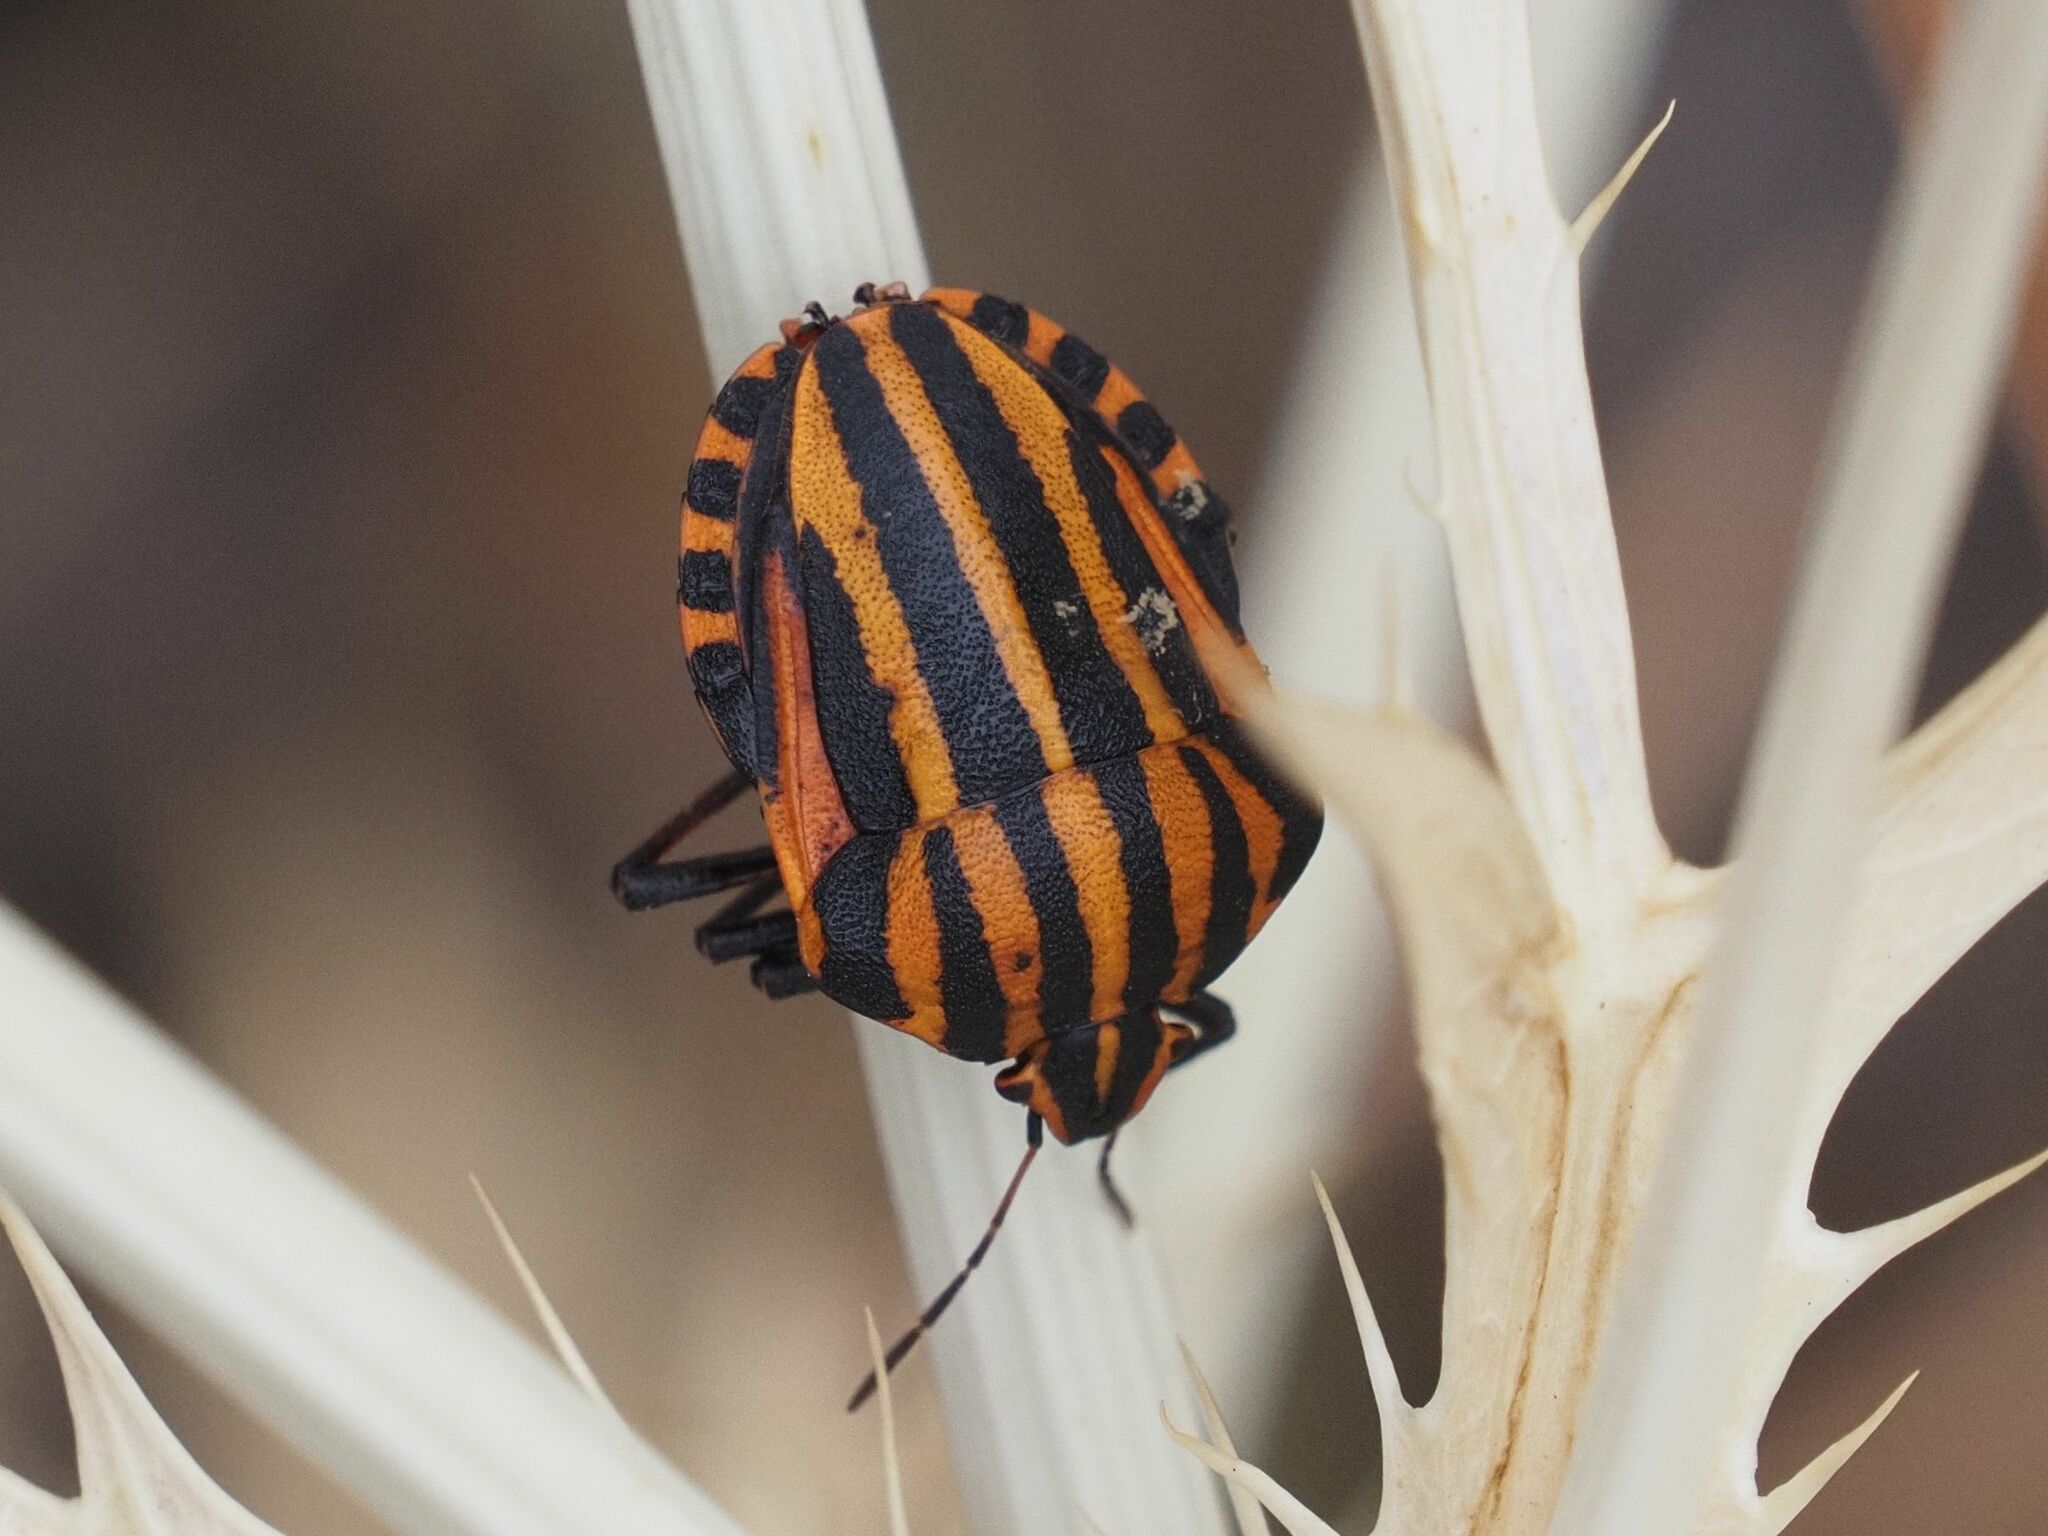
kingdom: Animalia
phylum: Arthropoda
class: Insecta
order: Hemiptera
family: Pentatomidae
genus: Graphosoma
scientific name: Graphosoma italicum
